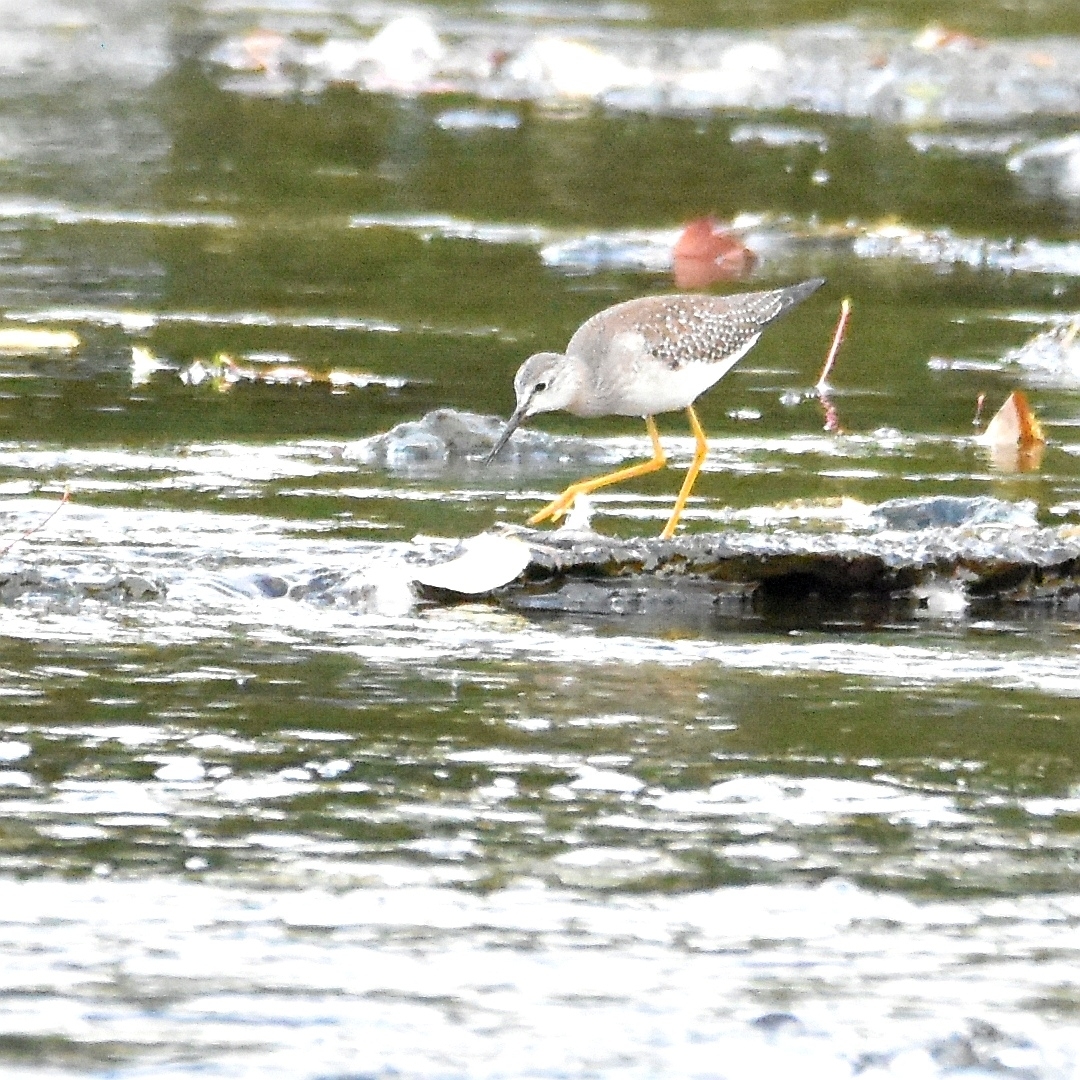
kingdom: Animalia
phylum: Chordata
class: Aves
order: Charadriiformes
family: Scolopacidae
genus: Tringa
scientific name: Tringa flavipes
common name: Lesser yellowlegs
